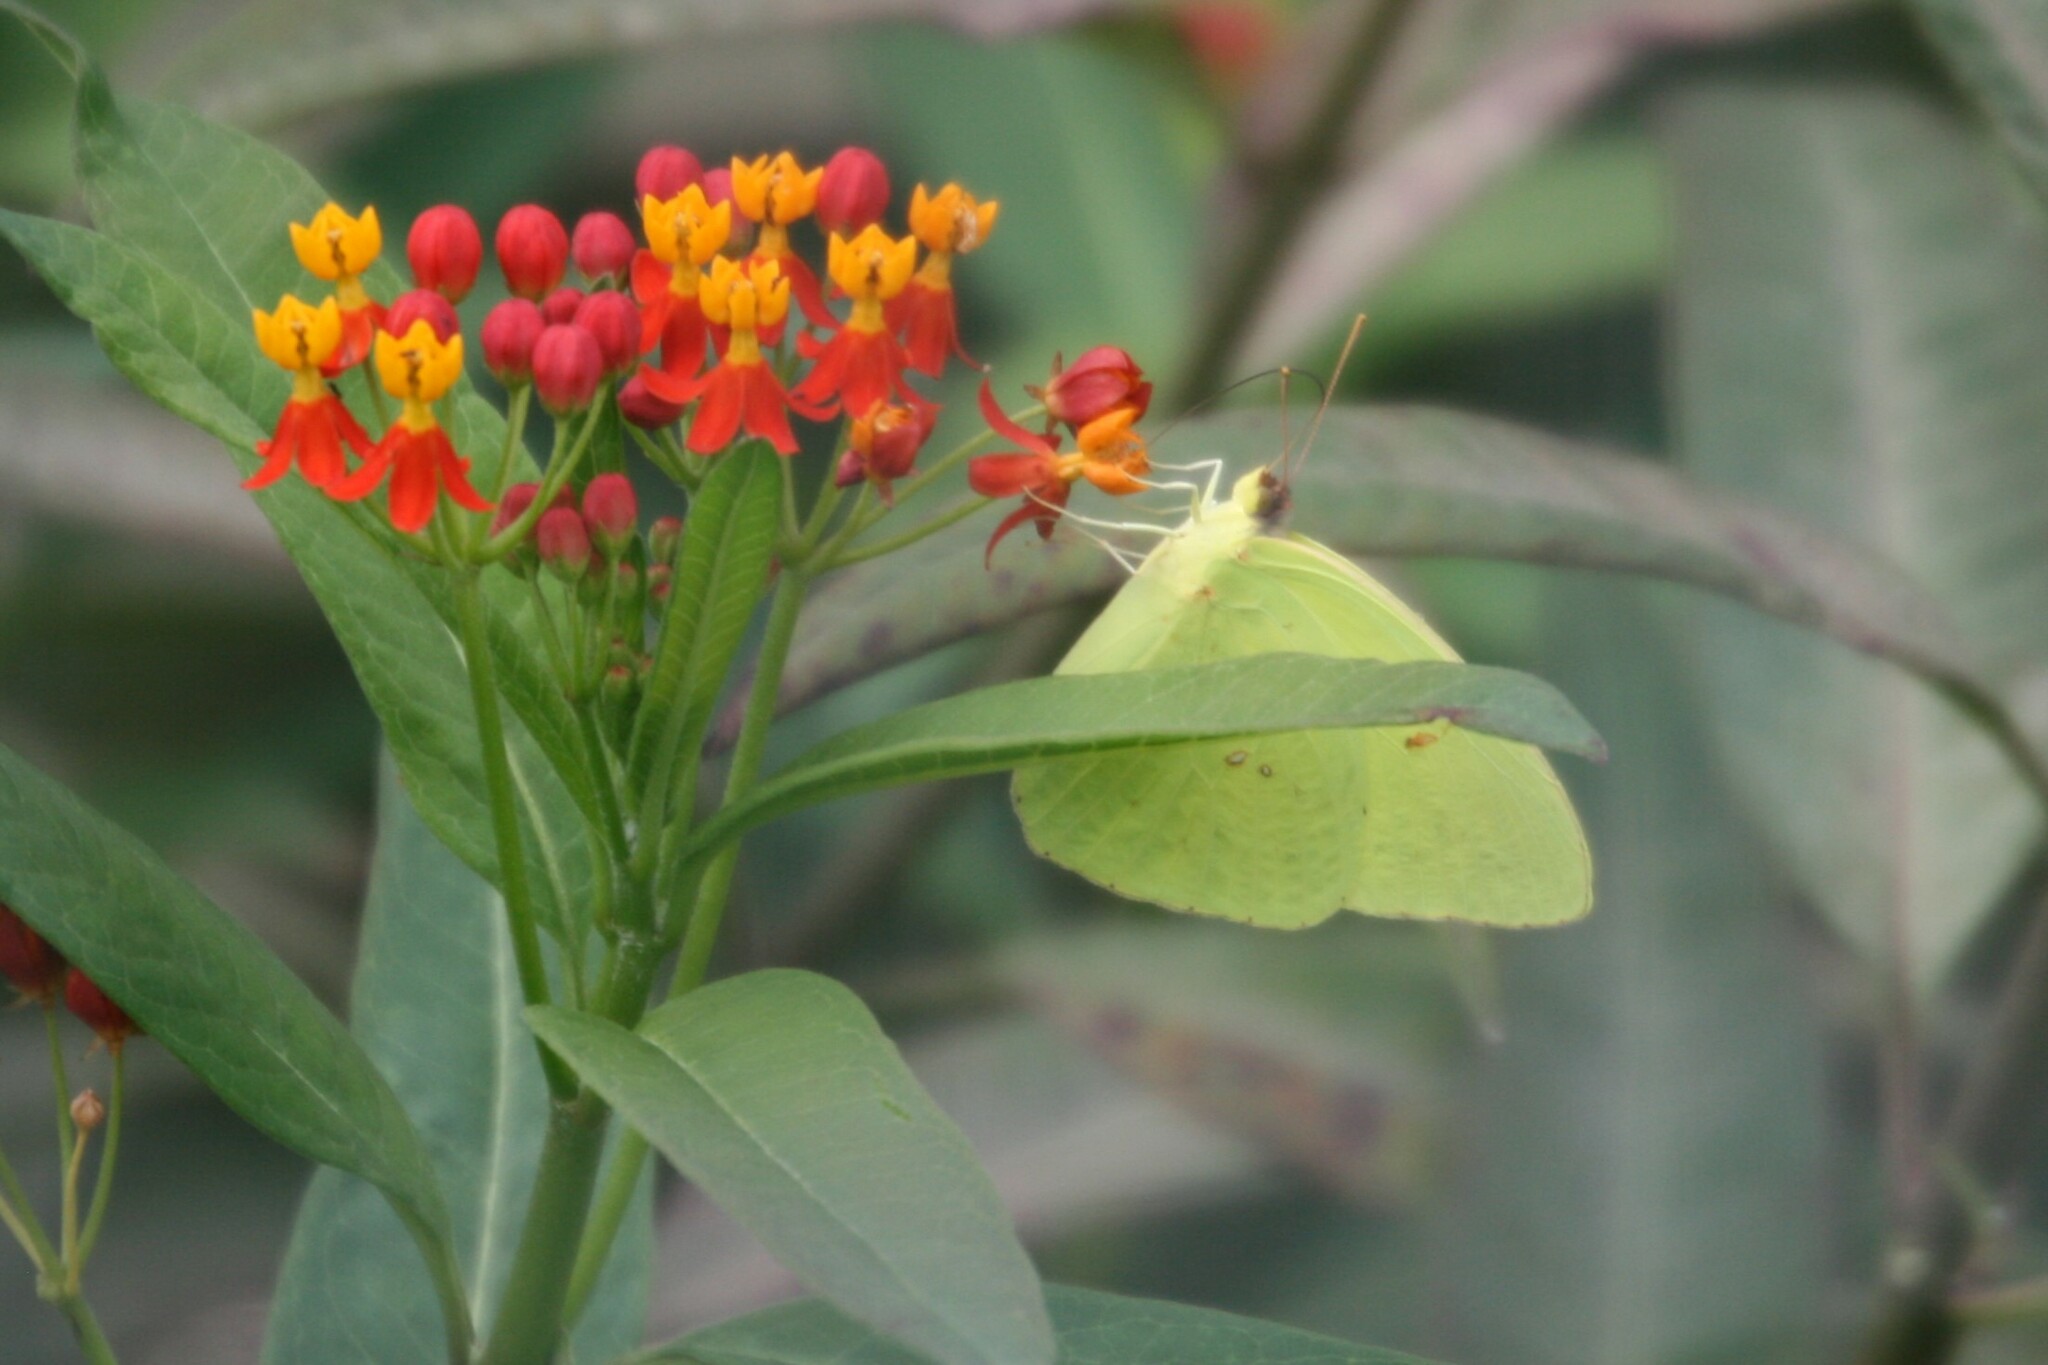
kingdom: Animalia
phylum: Arthropoda
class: Insecta
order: Lepidoptera
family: Pieridae
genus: Phoebis
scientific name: Phoebis sennae
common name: Cloudless sulphur
